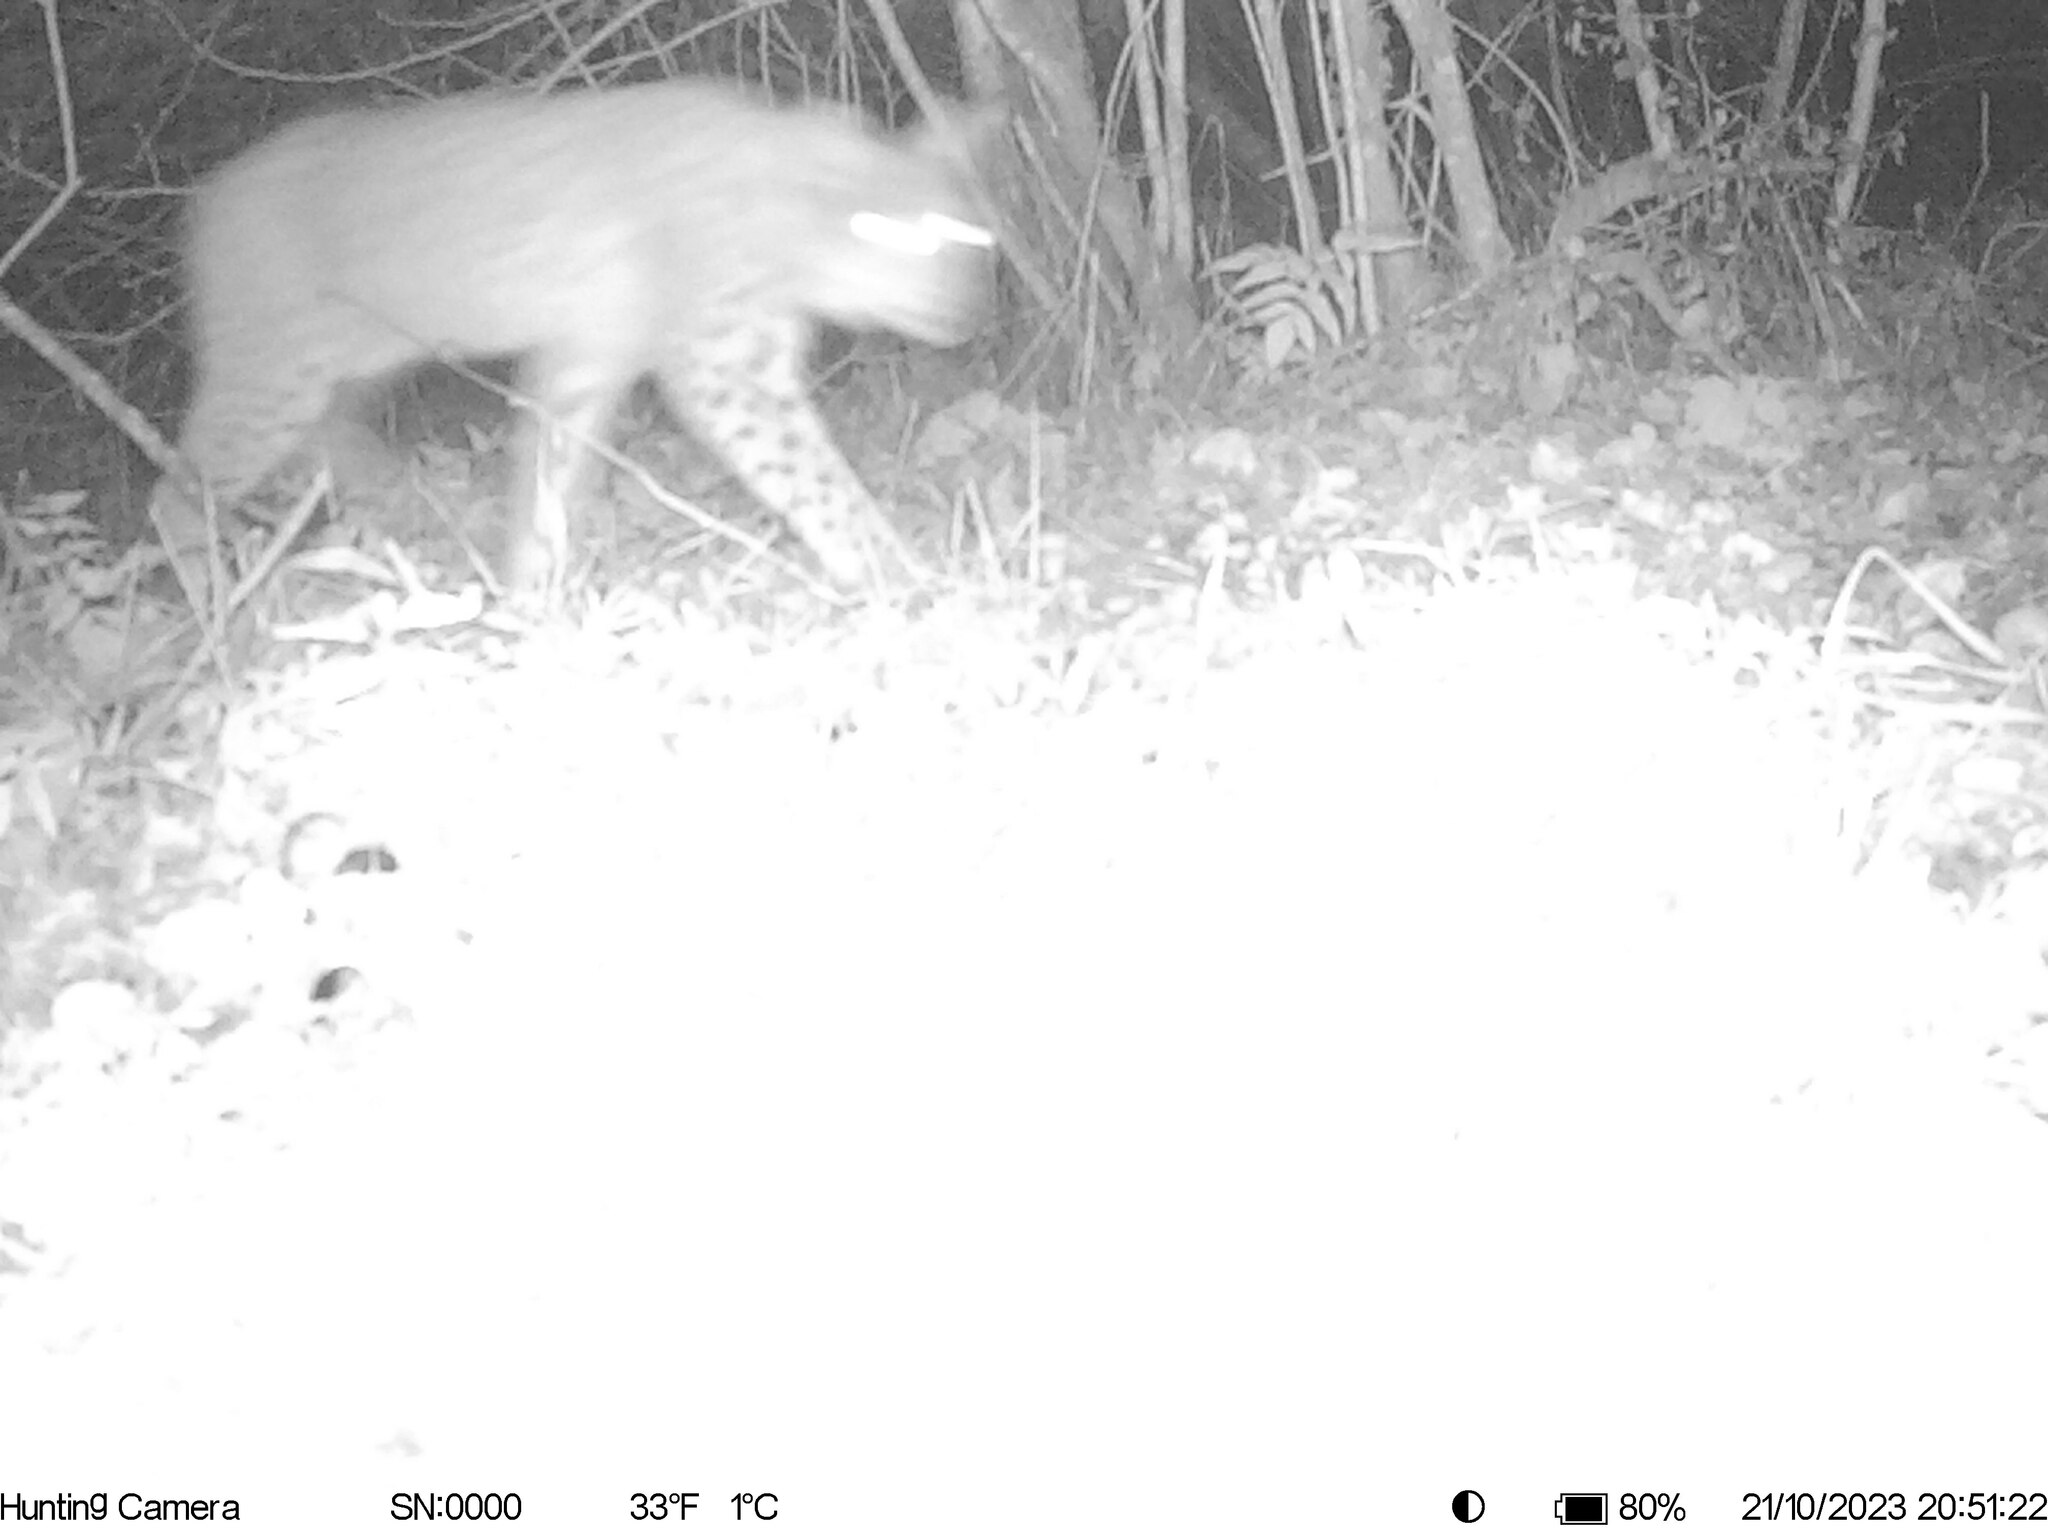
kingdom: Animalia
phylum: Chordata
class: Mammalia
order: Carnivora
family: Felidae
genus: Lynx
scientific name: Lynx lynx
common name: Eurasian lynx
